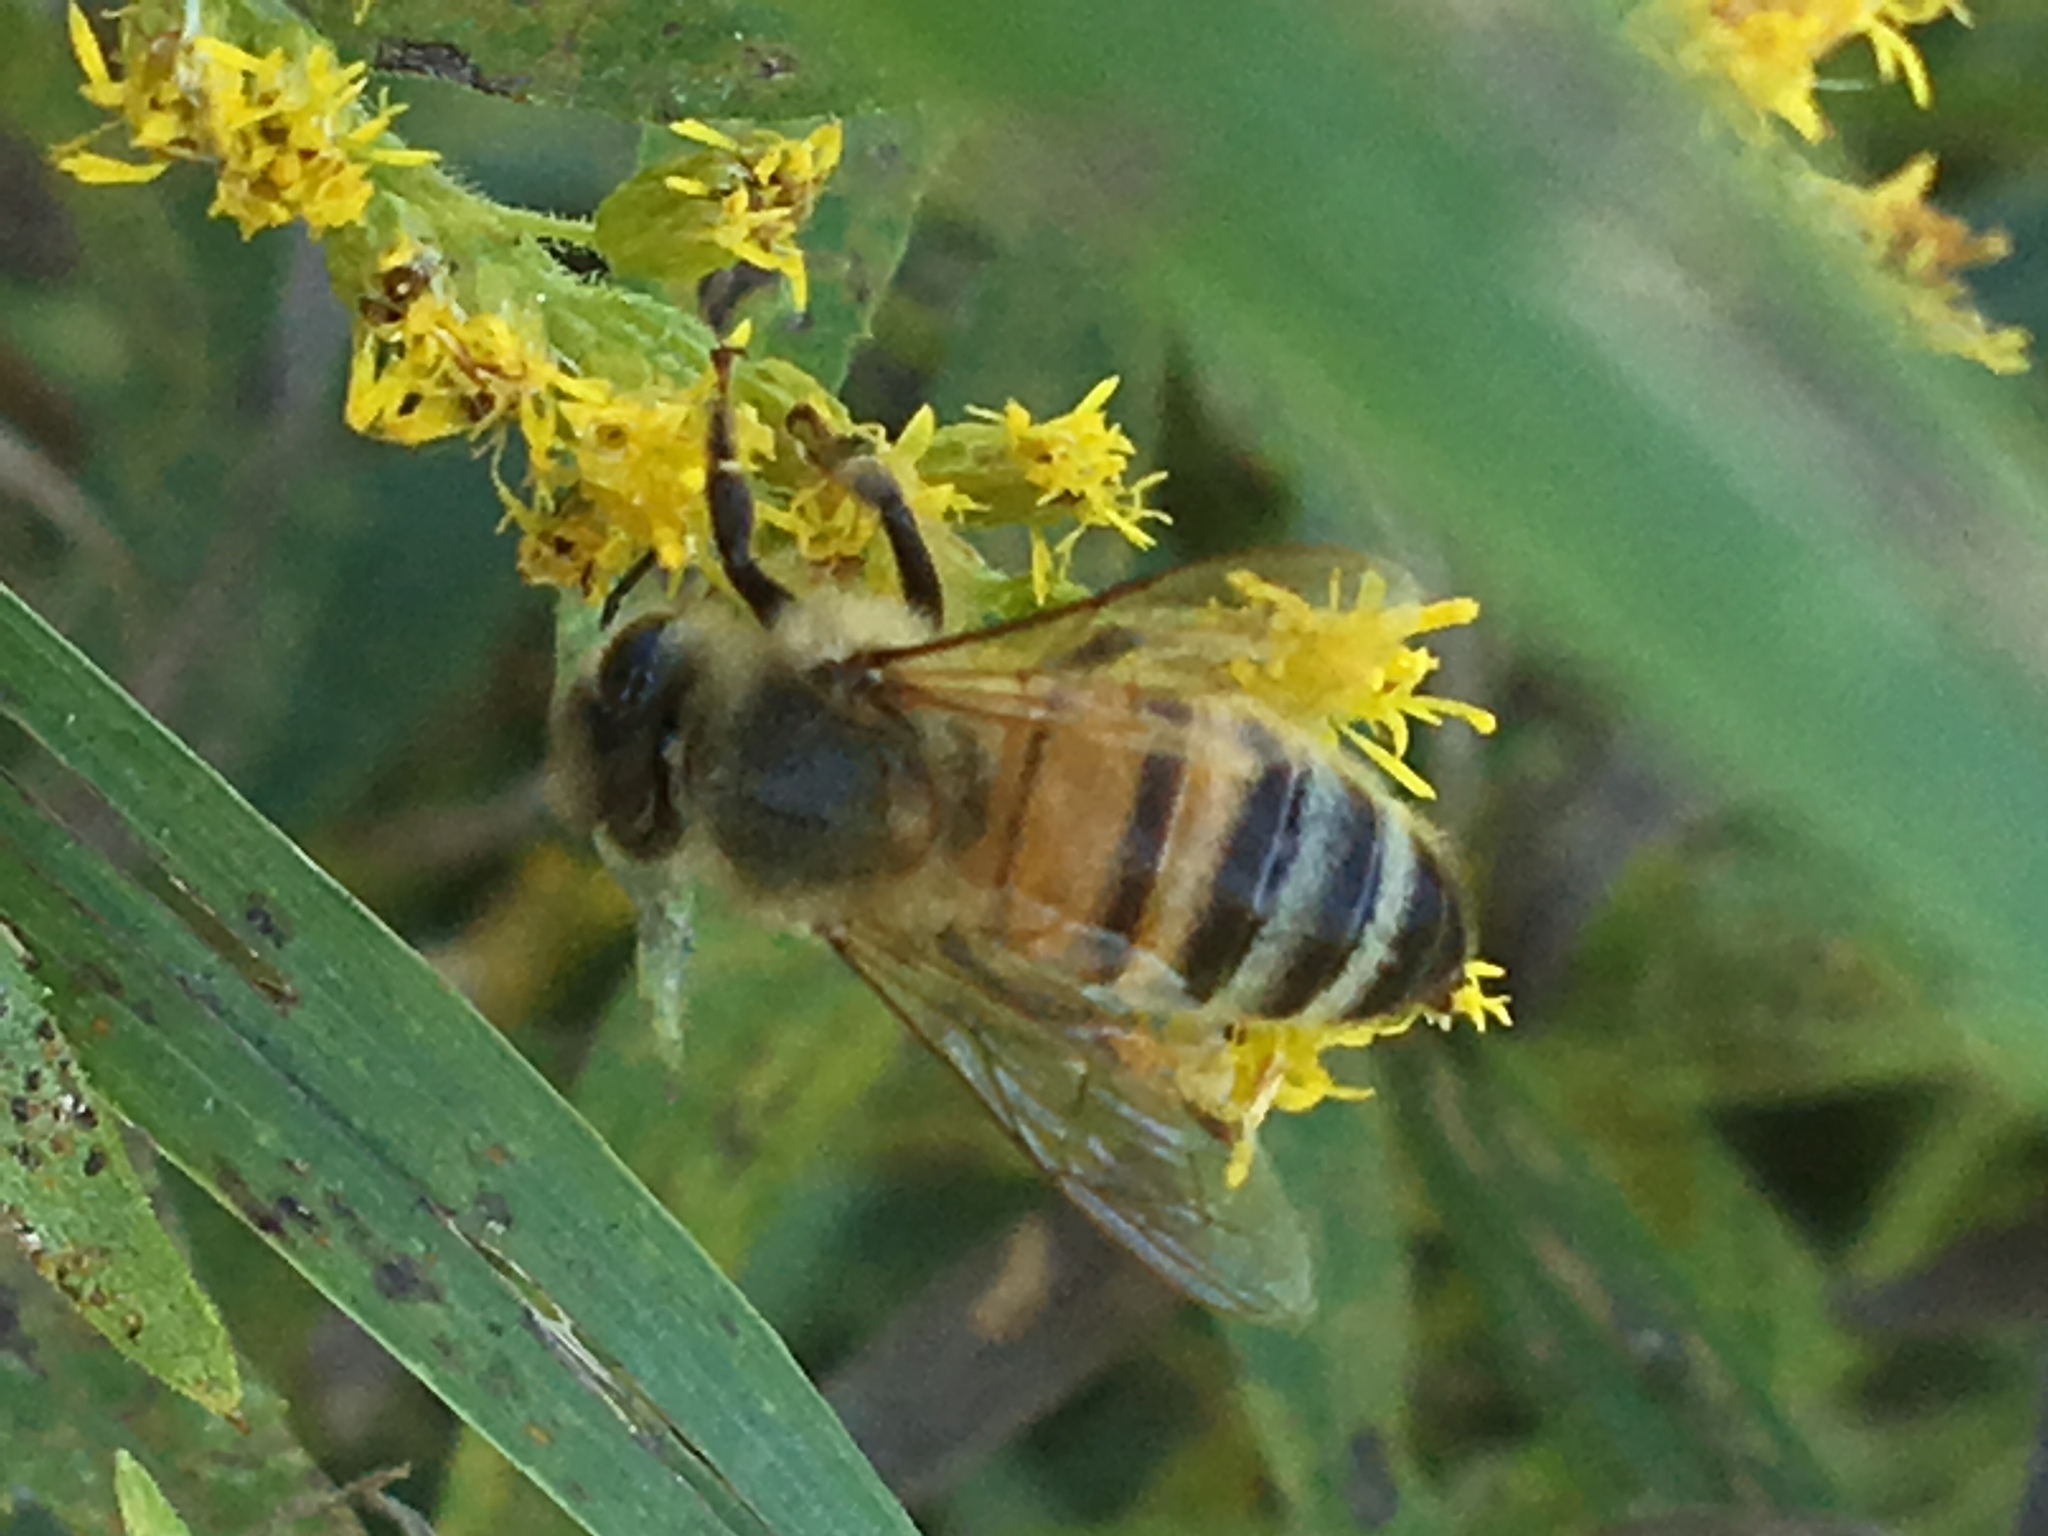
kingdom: Animalia
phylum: Arthropoda
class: Insecta
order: Hymenoptera
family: Apidae
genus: Apis
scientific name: Apis mellifera
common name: Honey bee
